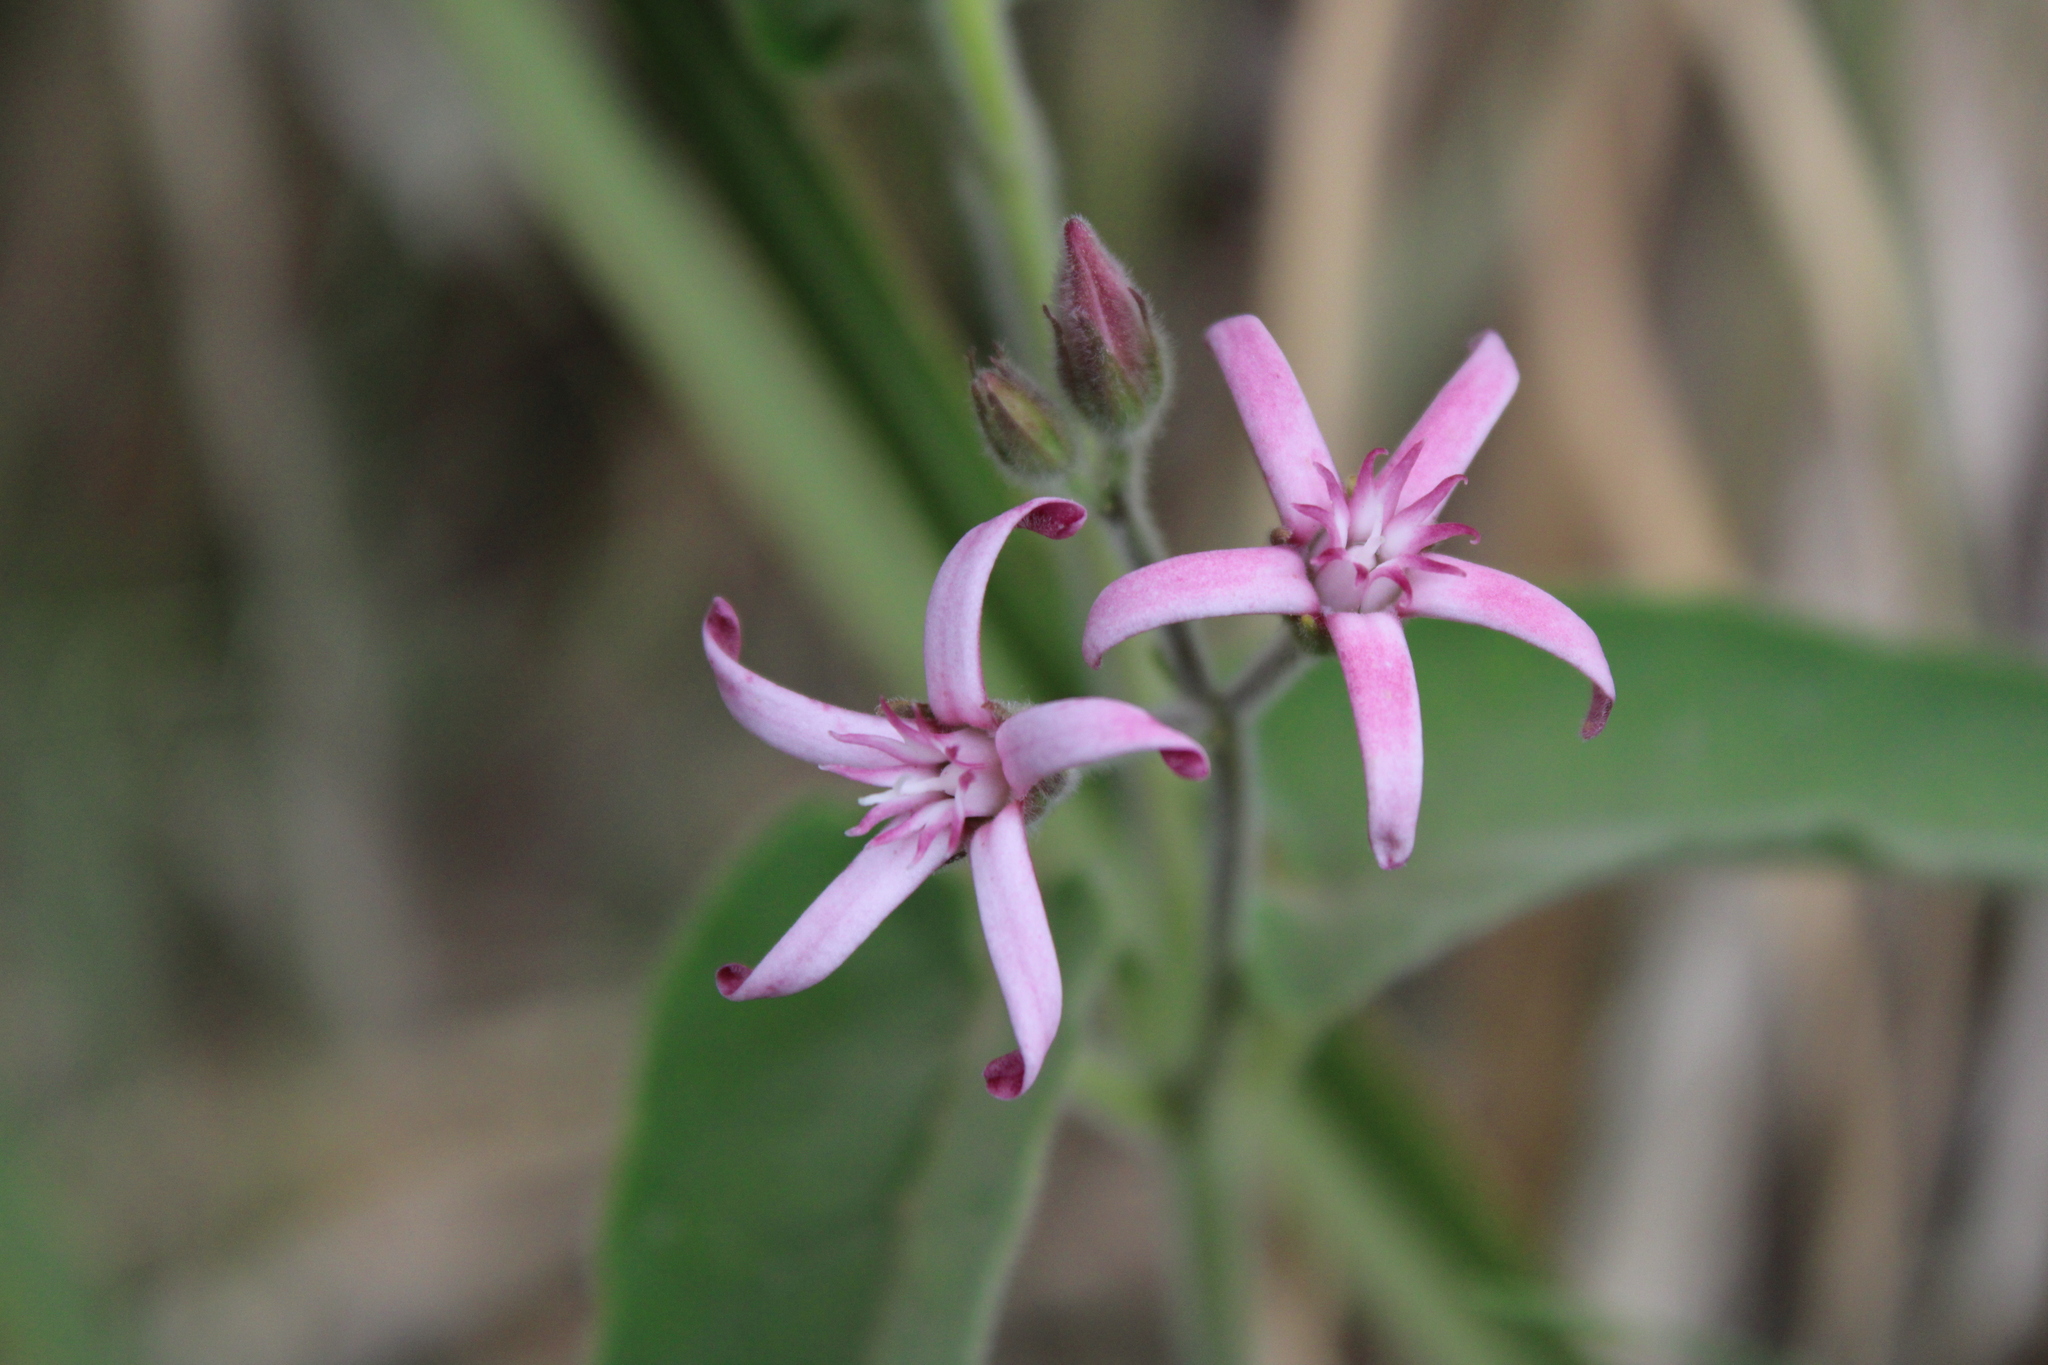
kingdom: Plantae
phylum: Tracheophyta
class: Magnoliopsida
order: Gentianales
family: Apocynaceae
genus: Oxypetalum
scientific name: Oxypetalum solanoides
